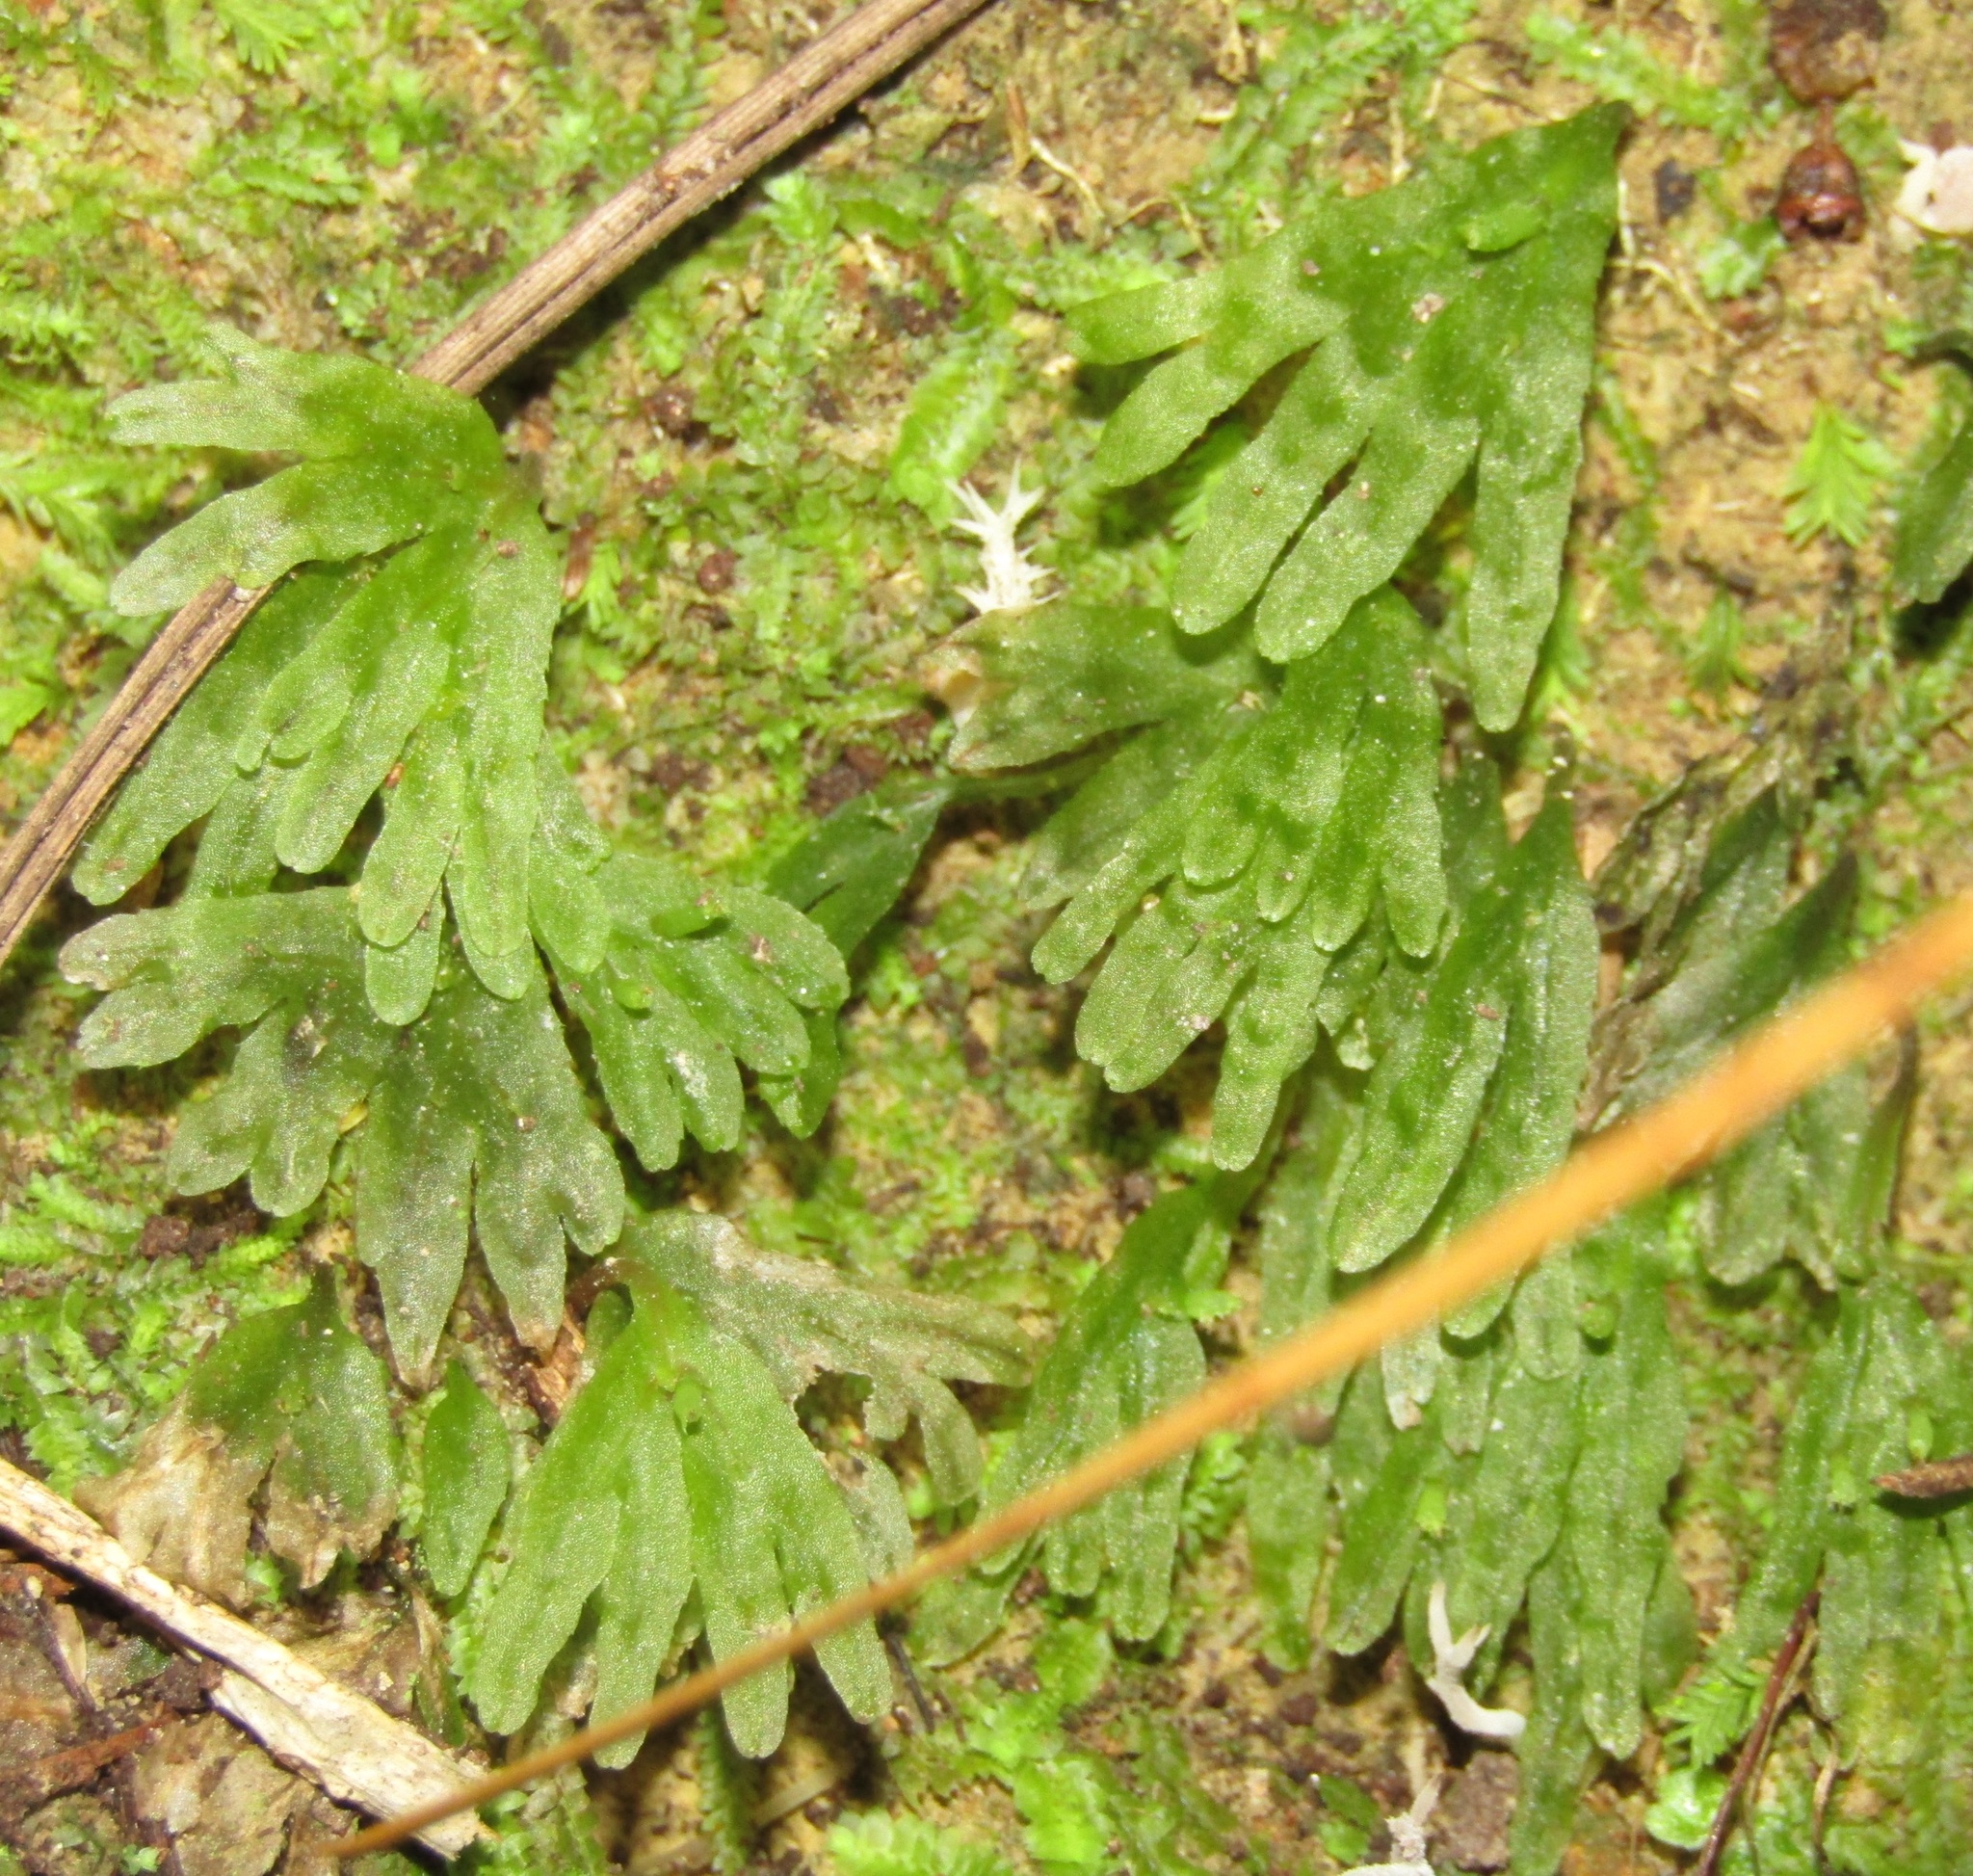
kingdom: Plantae
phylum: Marchantiophyta
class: Jungermanniopsida
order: Pallaviciniales
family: Pallaviciniaceae
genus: Symphyogyna
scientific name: Symphyogyna hymenophyllum
